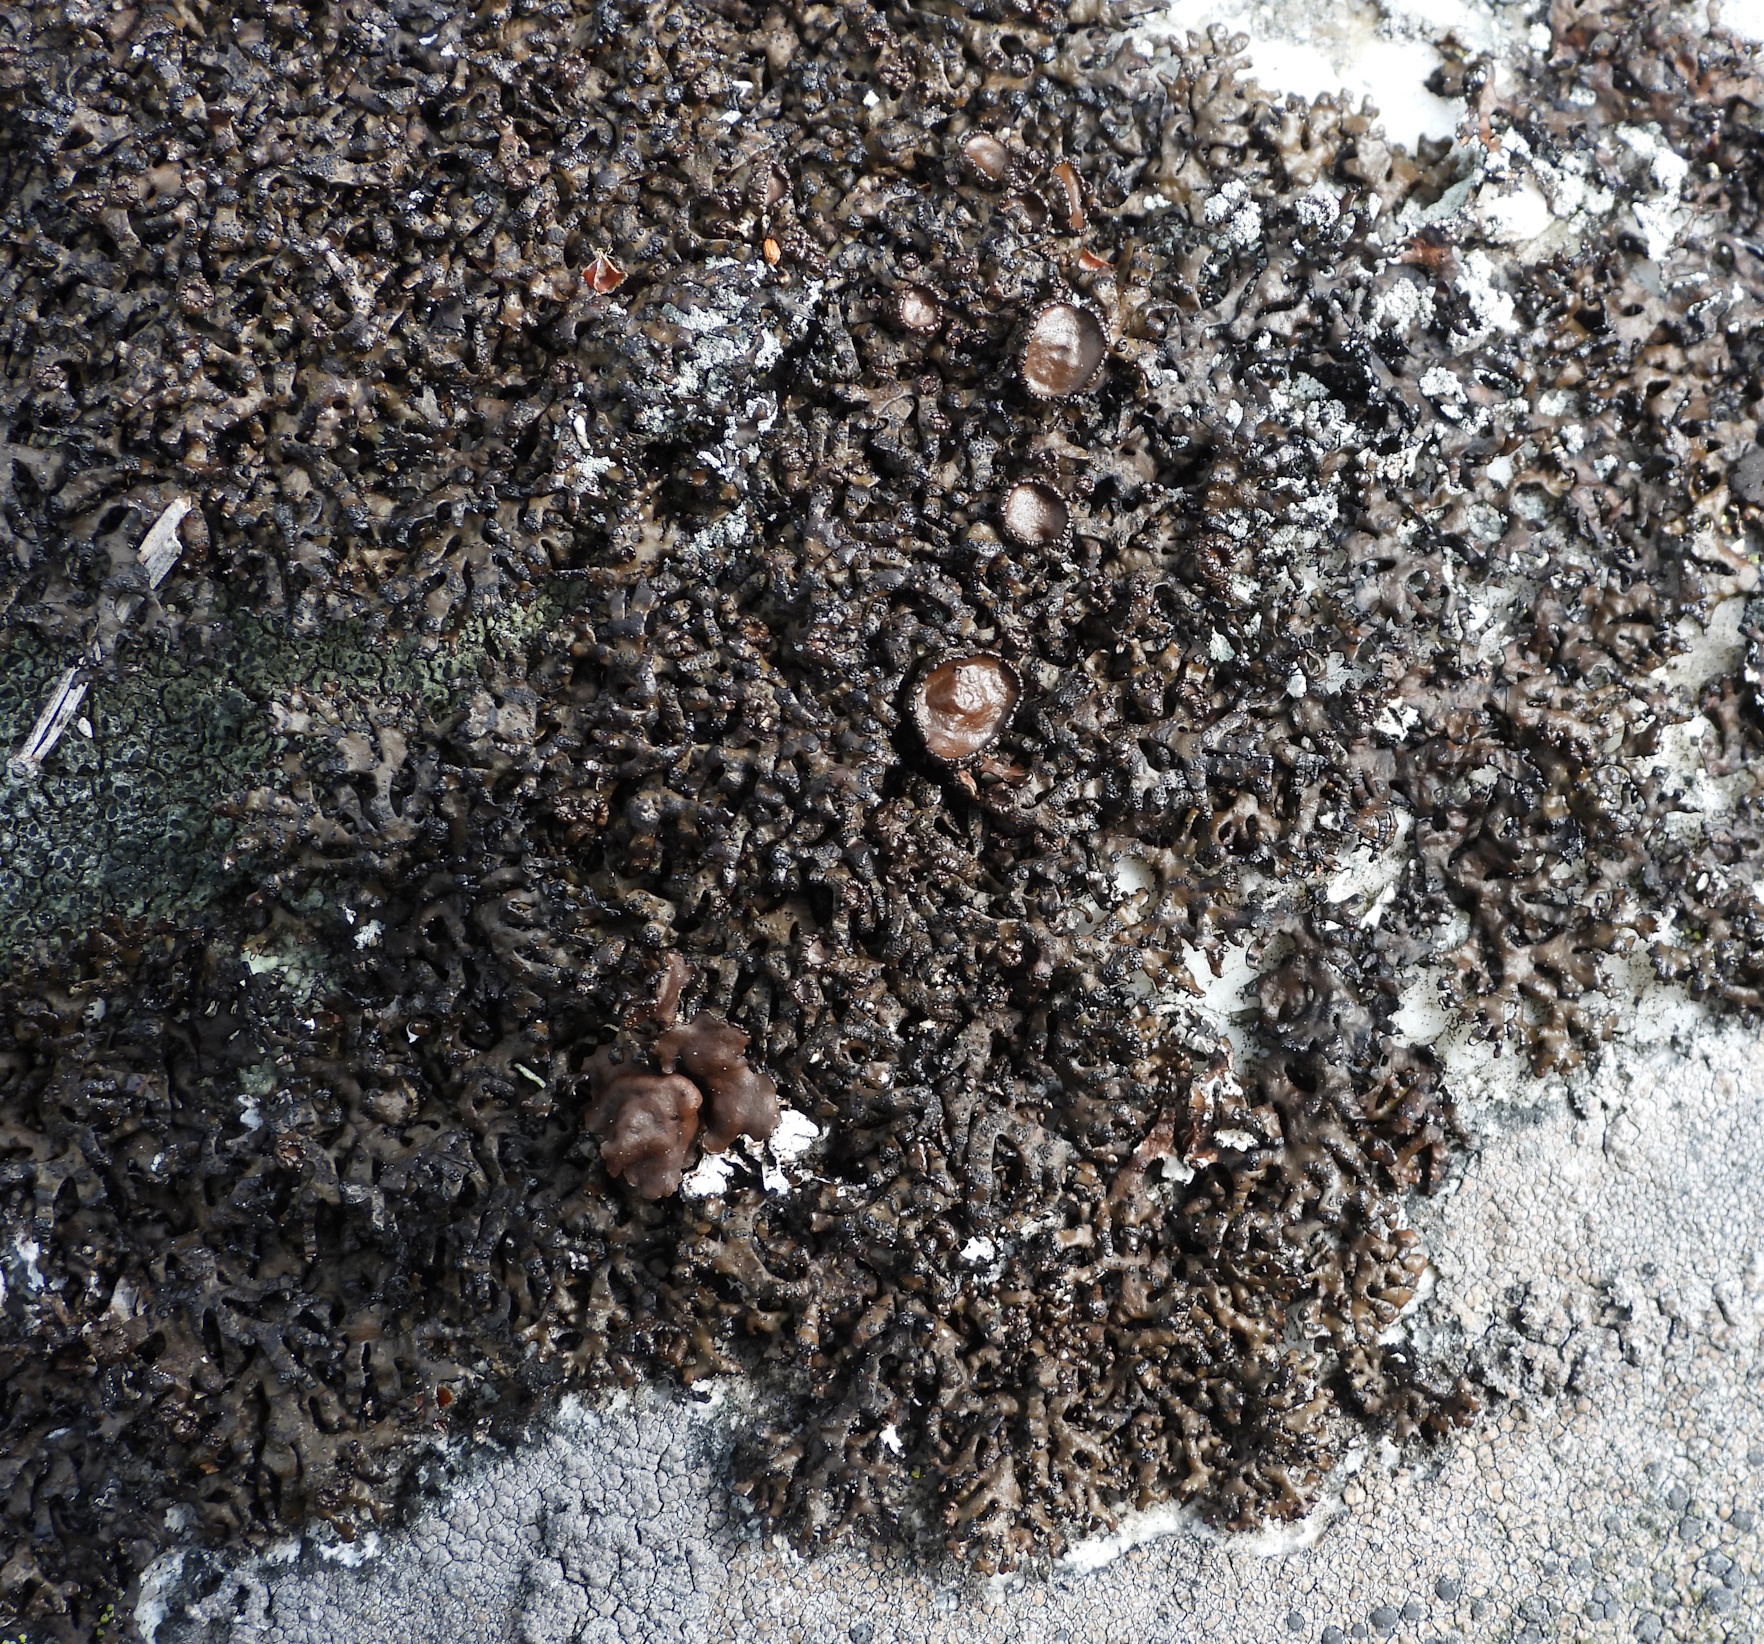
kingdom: Fungi
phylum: Ascomycota
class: Lecanoromycetes
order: Lecanorales
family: Parmeliaceae
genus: Melanelia
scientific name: Melanelia stygia
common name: Alpine camouflage lichen
